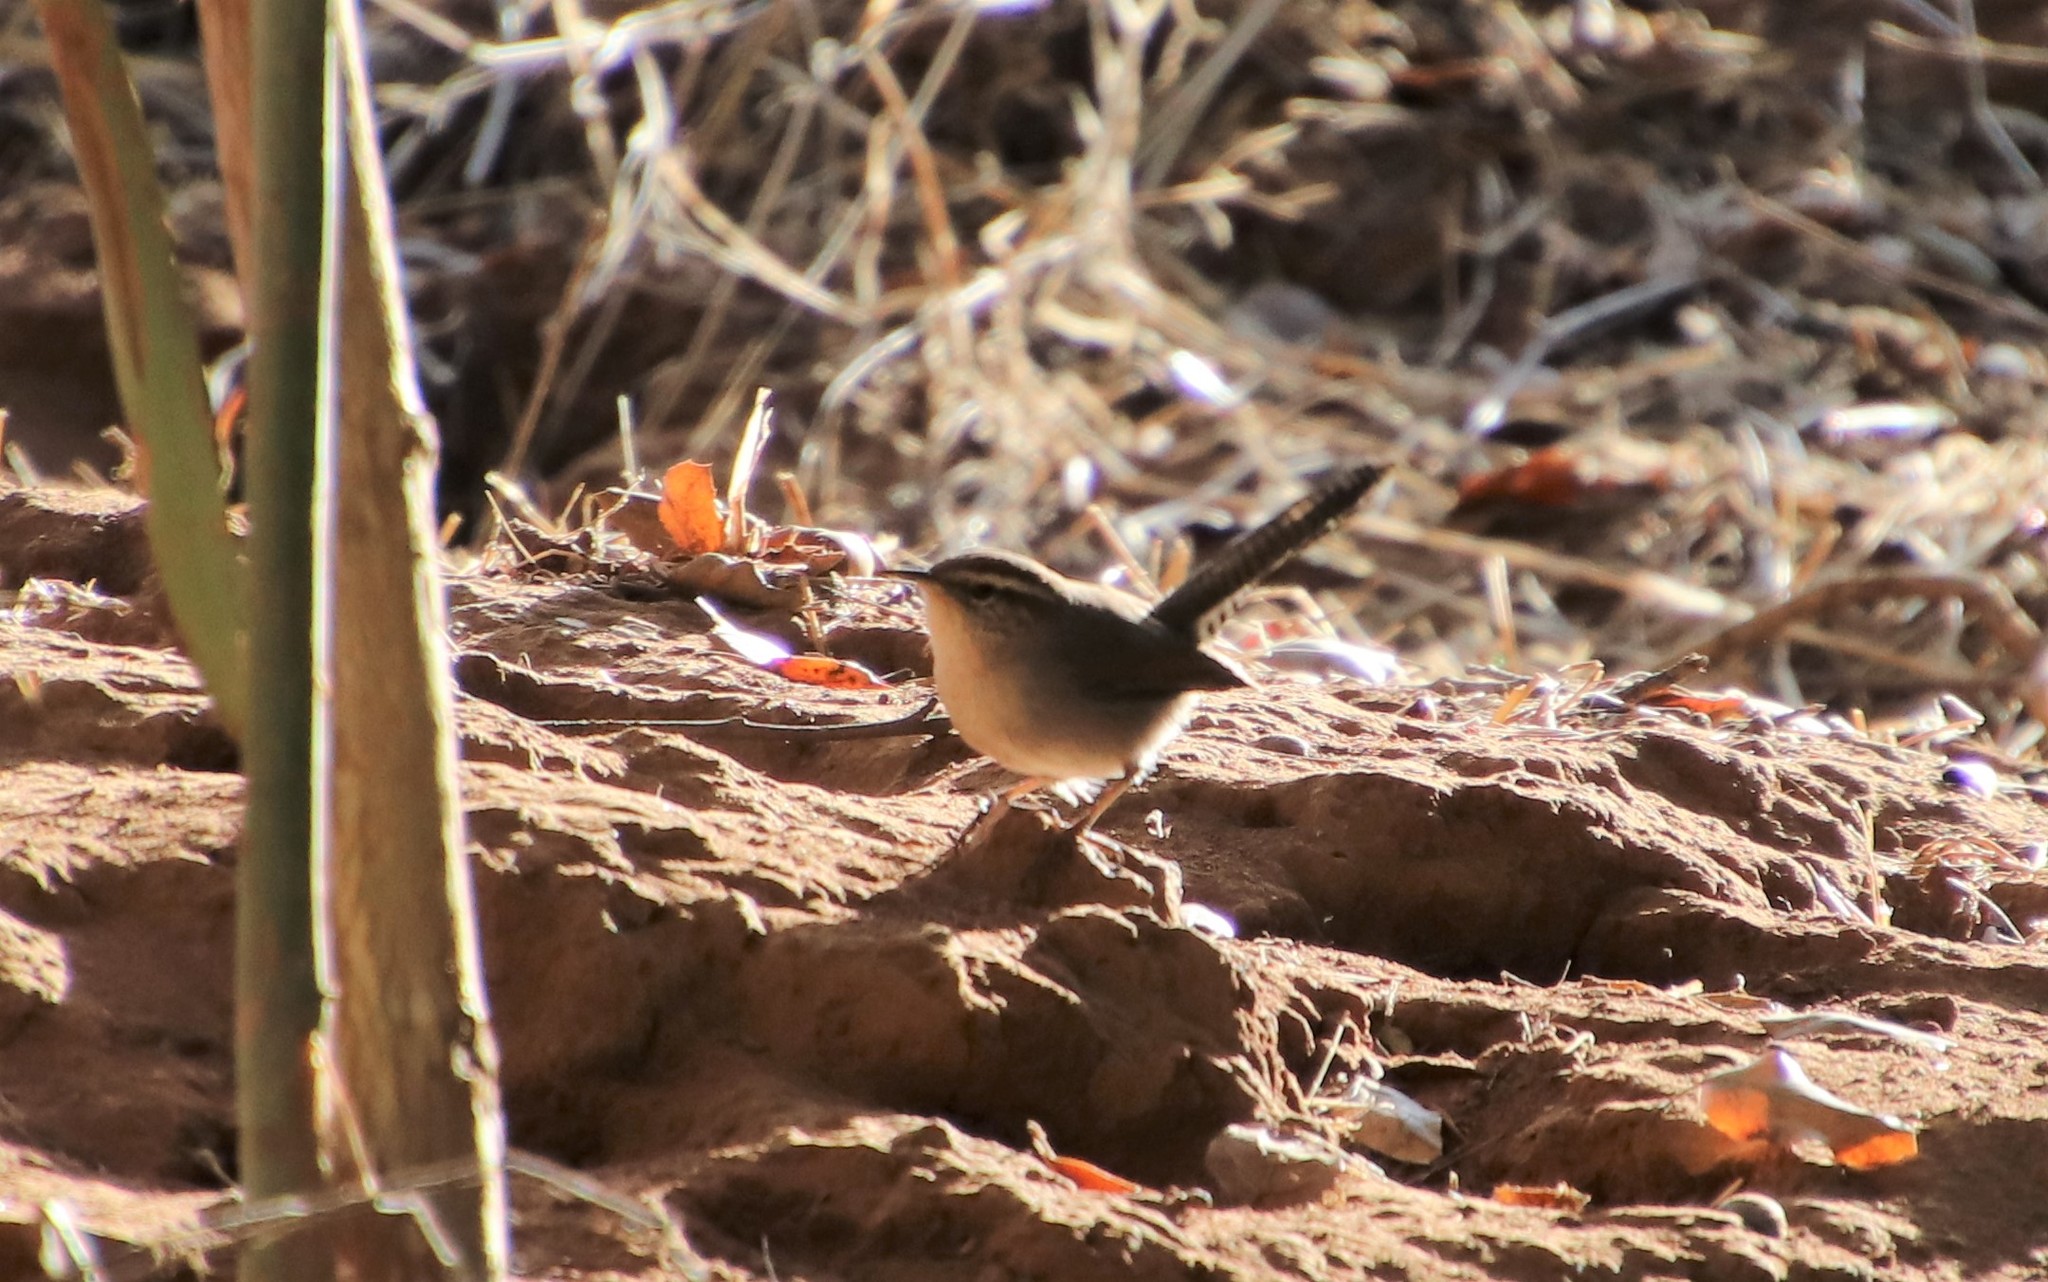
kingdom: Animalia
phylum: Chordata
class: Aves
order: Passeriformes
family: Troglodytidae
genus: Thryomanes
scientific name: Thryomanes bewickii
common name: Bewick's wren
